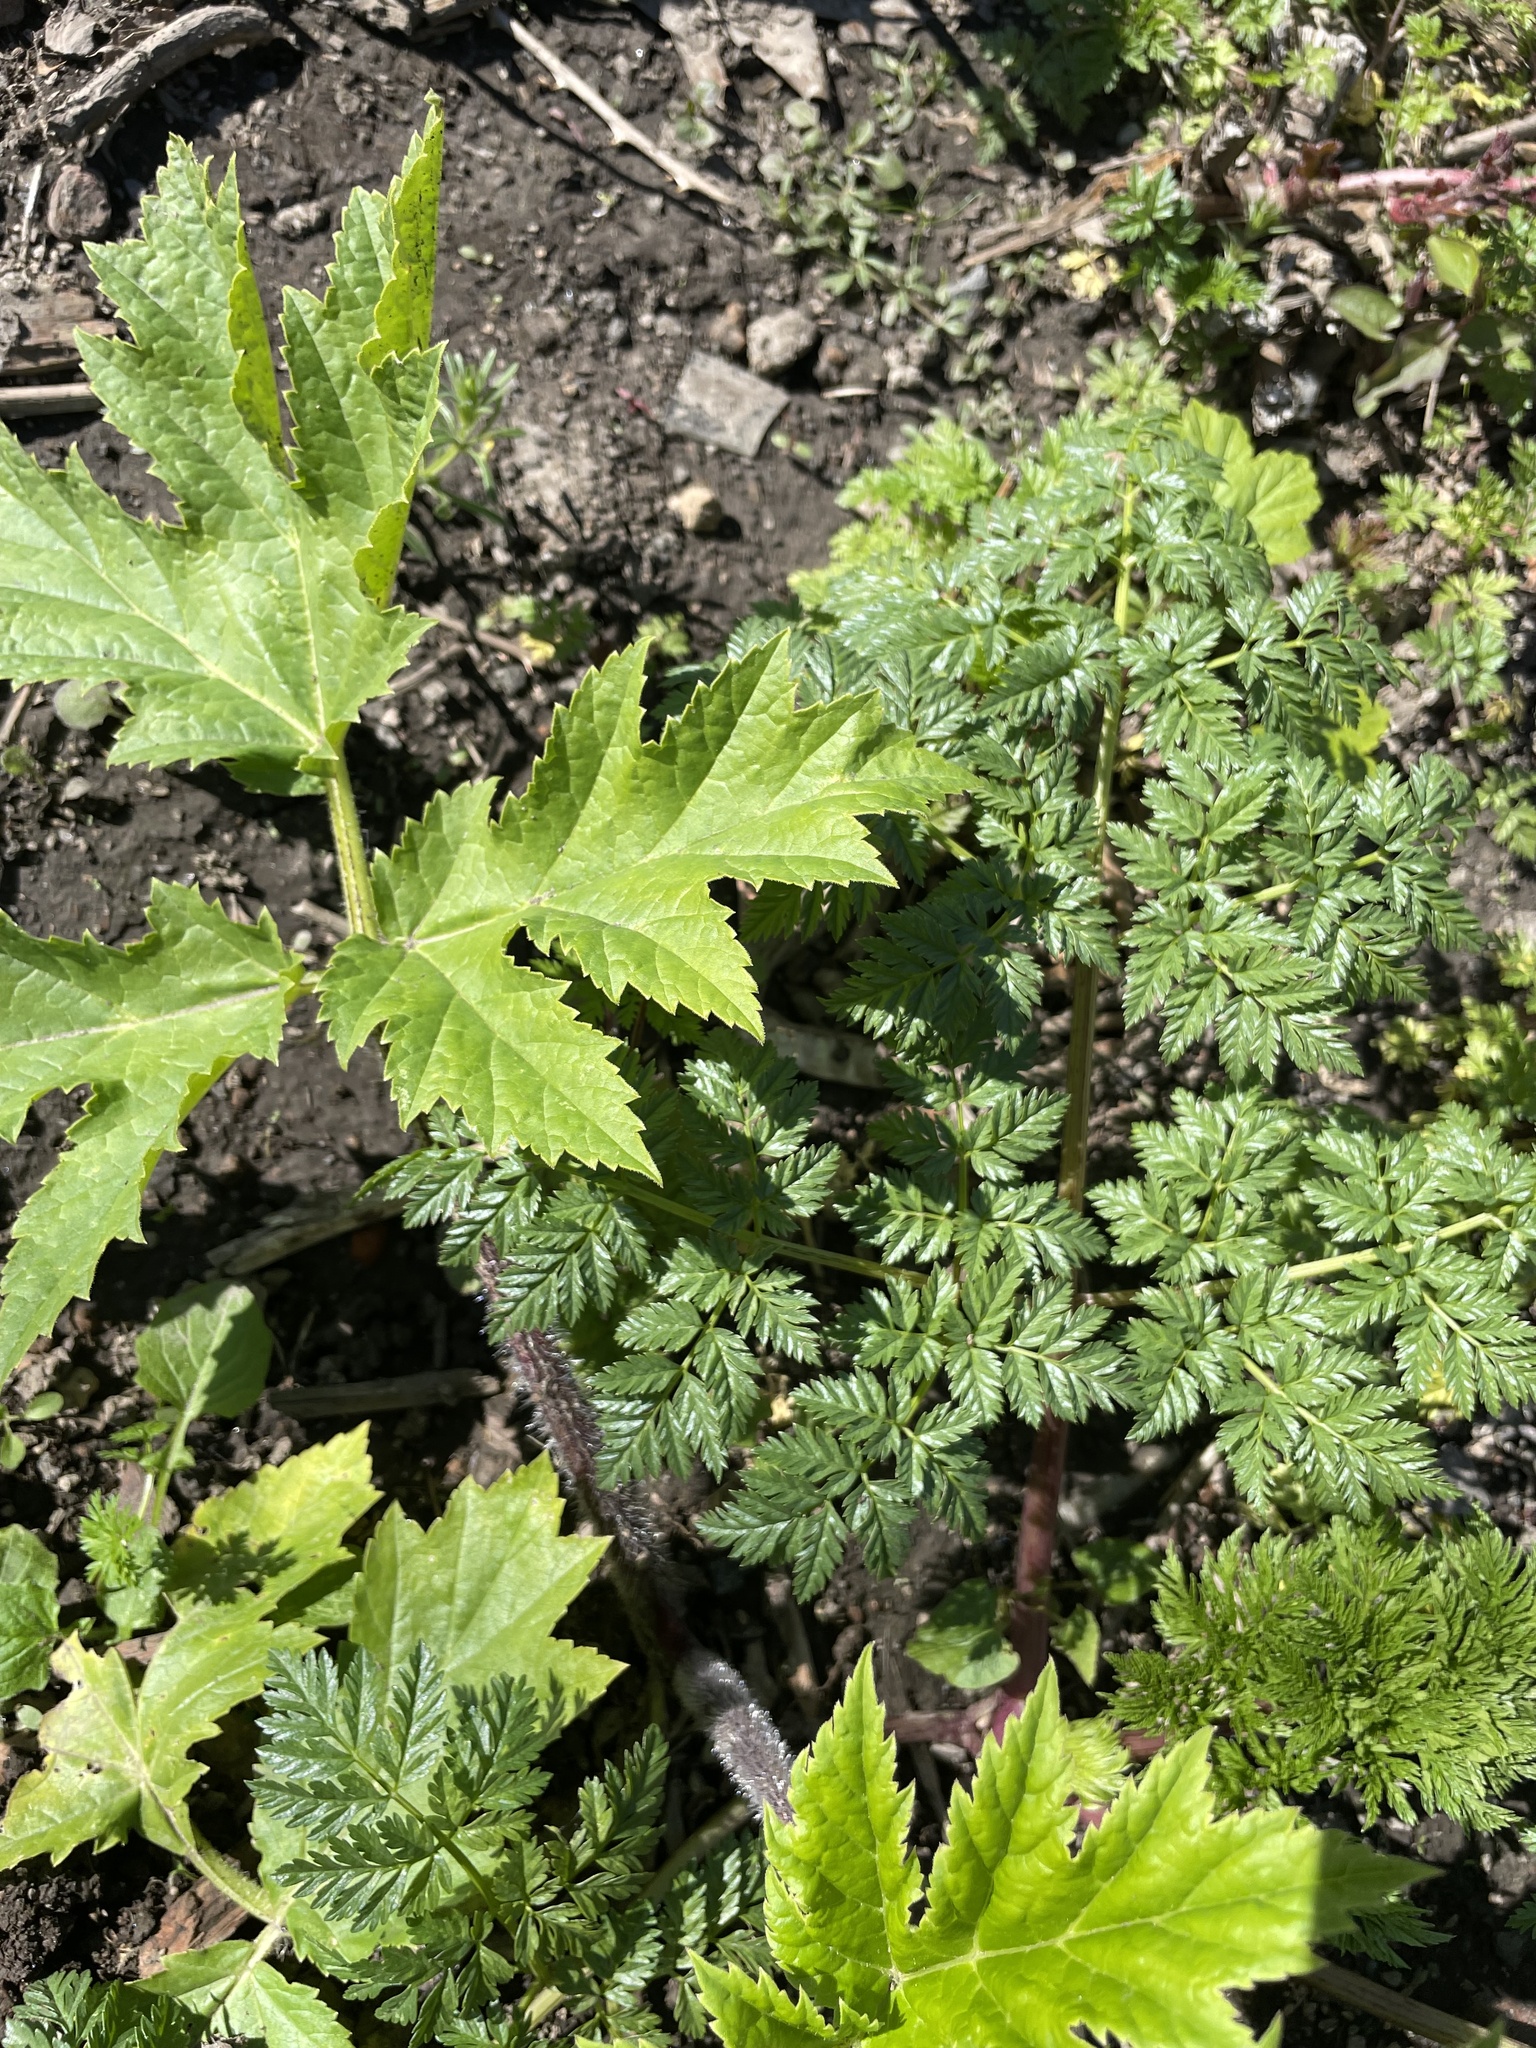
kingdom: Plantae
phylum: Tracheophyta
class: Magnoliopsida
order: Apiales
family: Apiaceae
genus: Heracleum
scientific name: Heracleum mantegazzianum
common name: Giant hogweed
